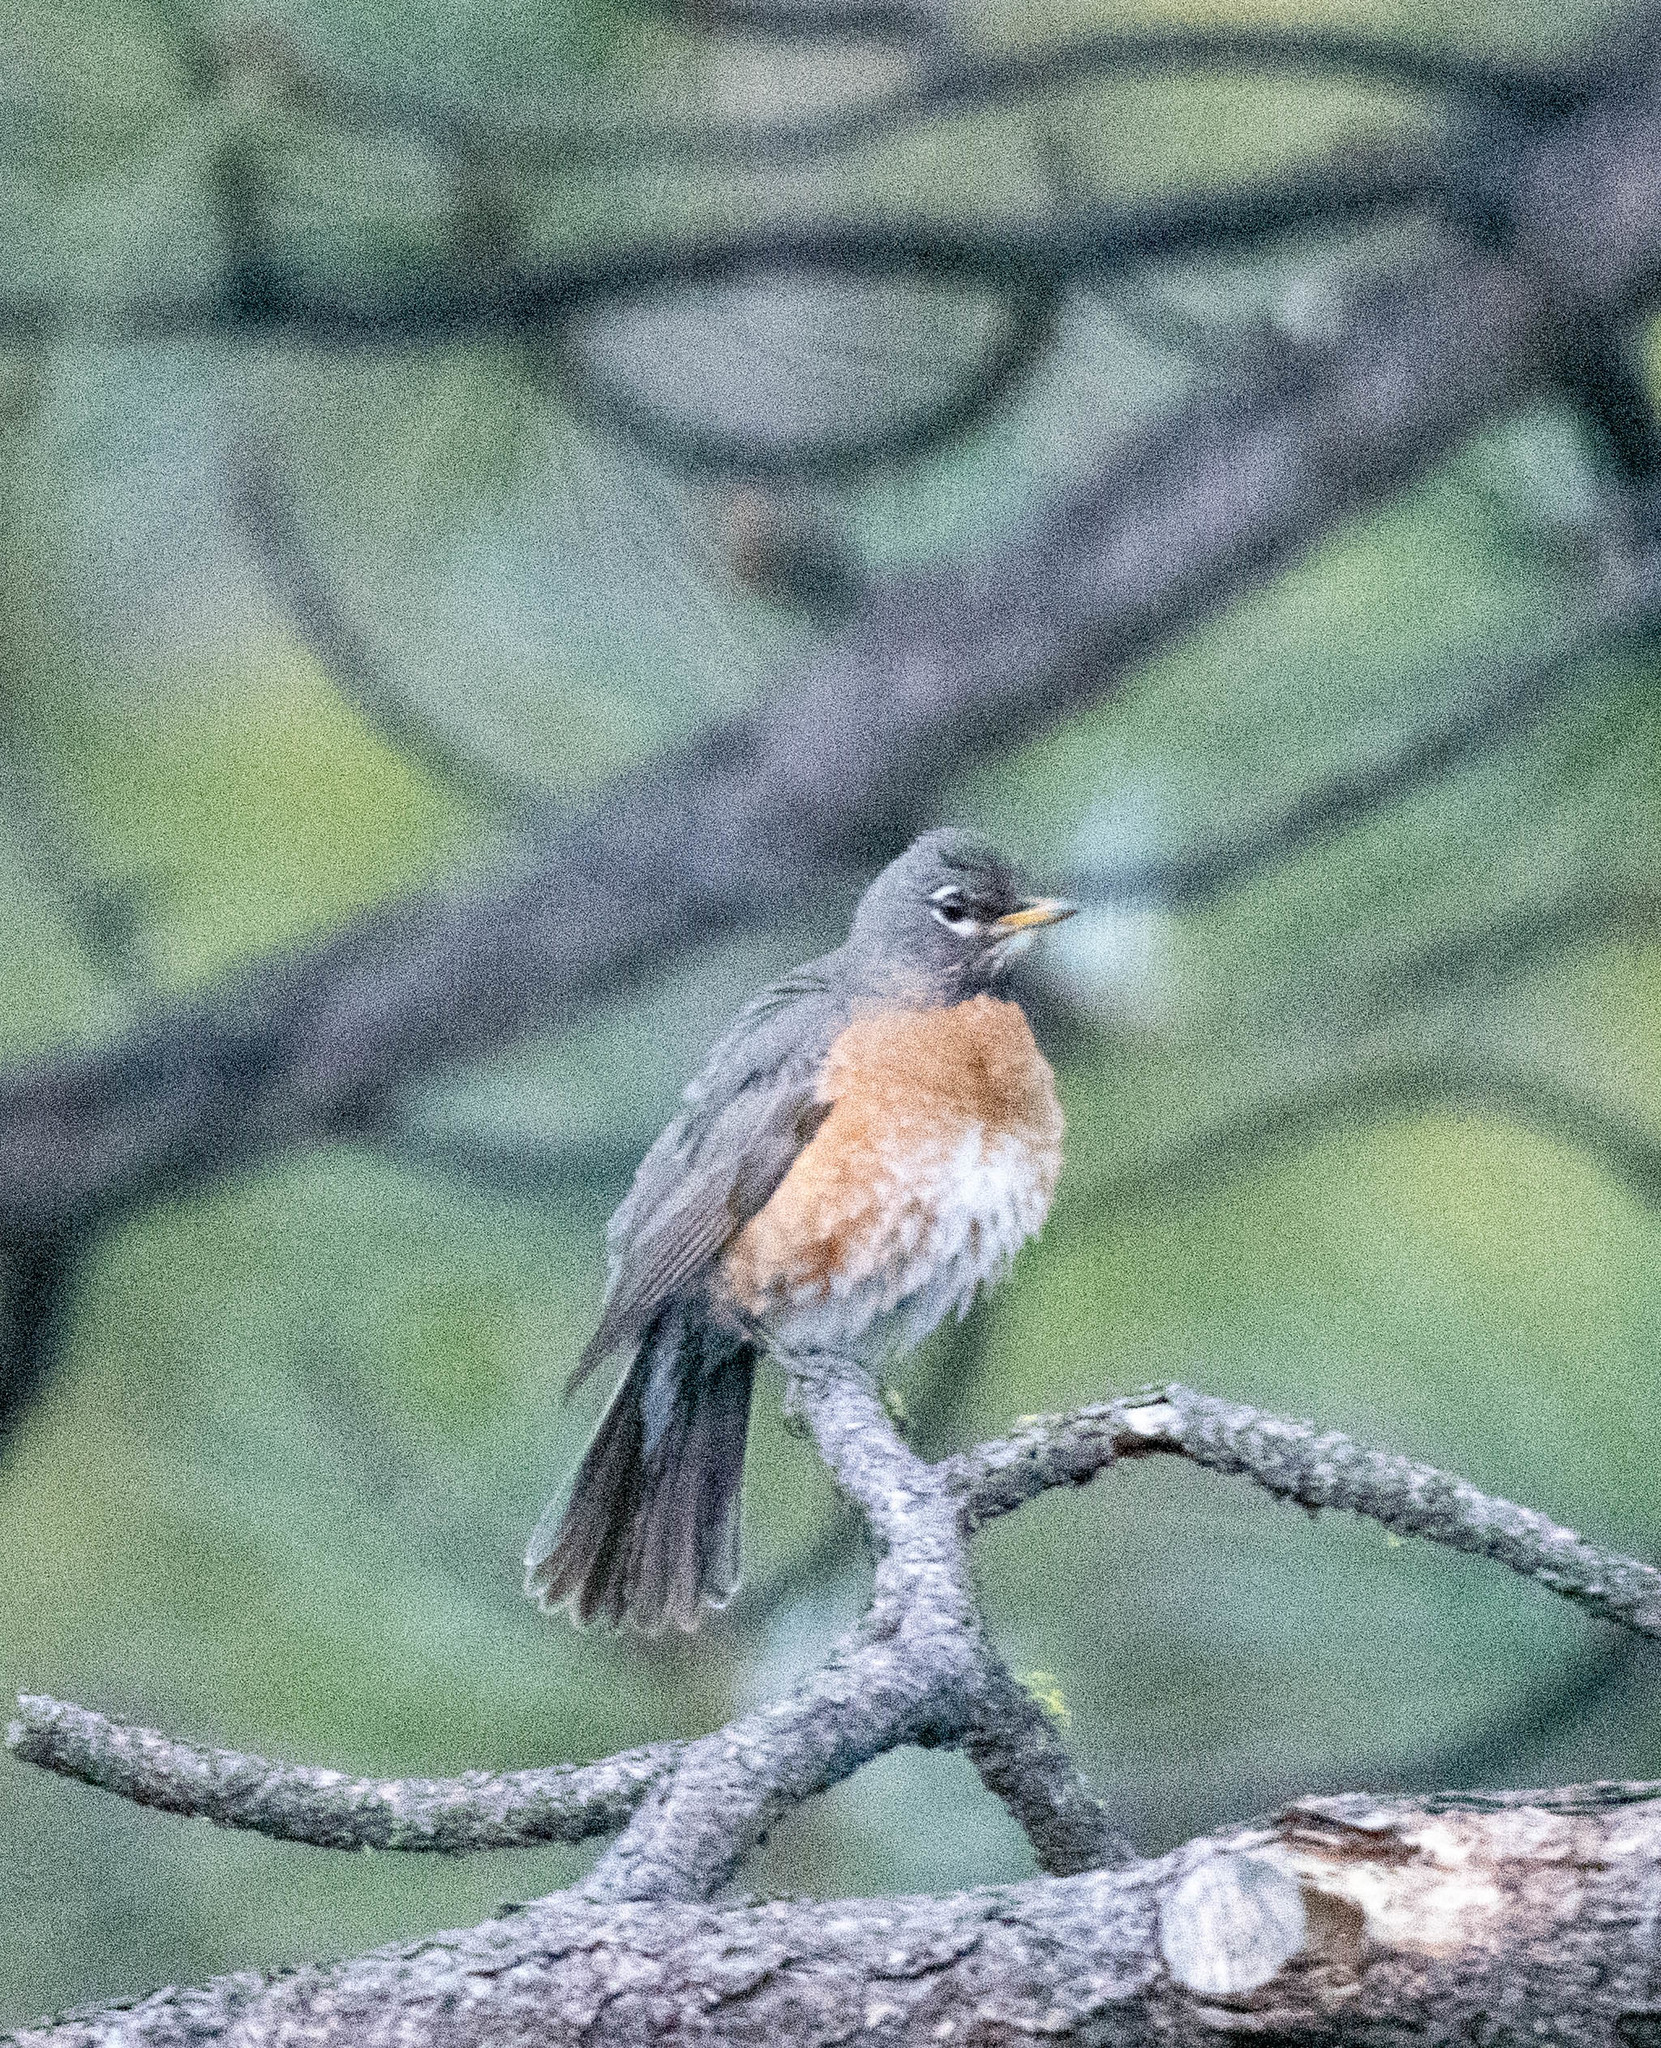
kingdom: Animalia
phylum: Chordata
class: Aves
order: Passeriformes
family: Turdidae
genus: Turdus
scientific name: Turdus migratorius
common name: American robin
